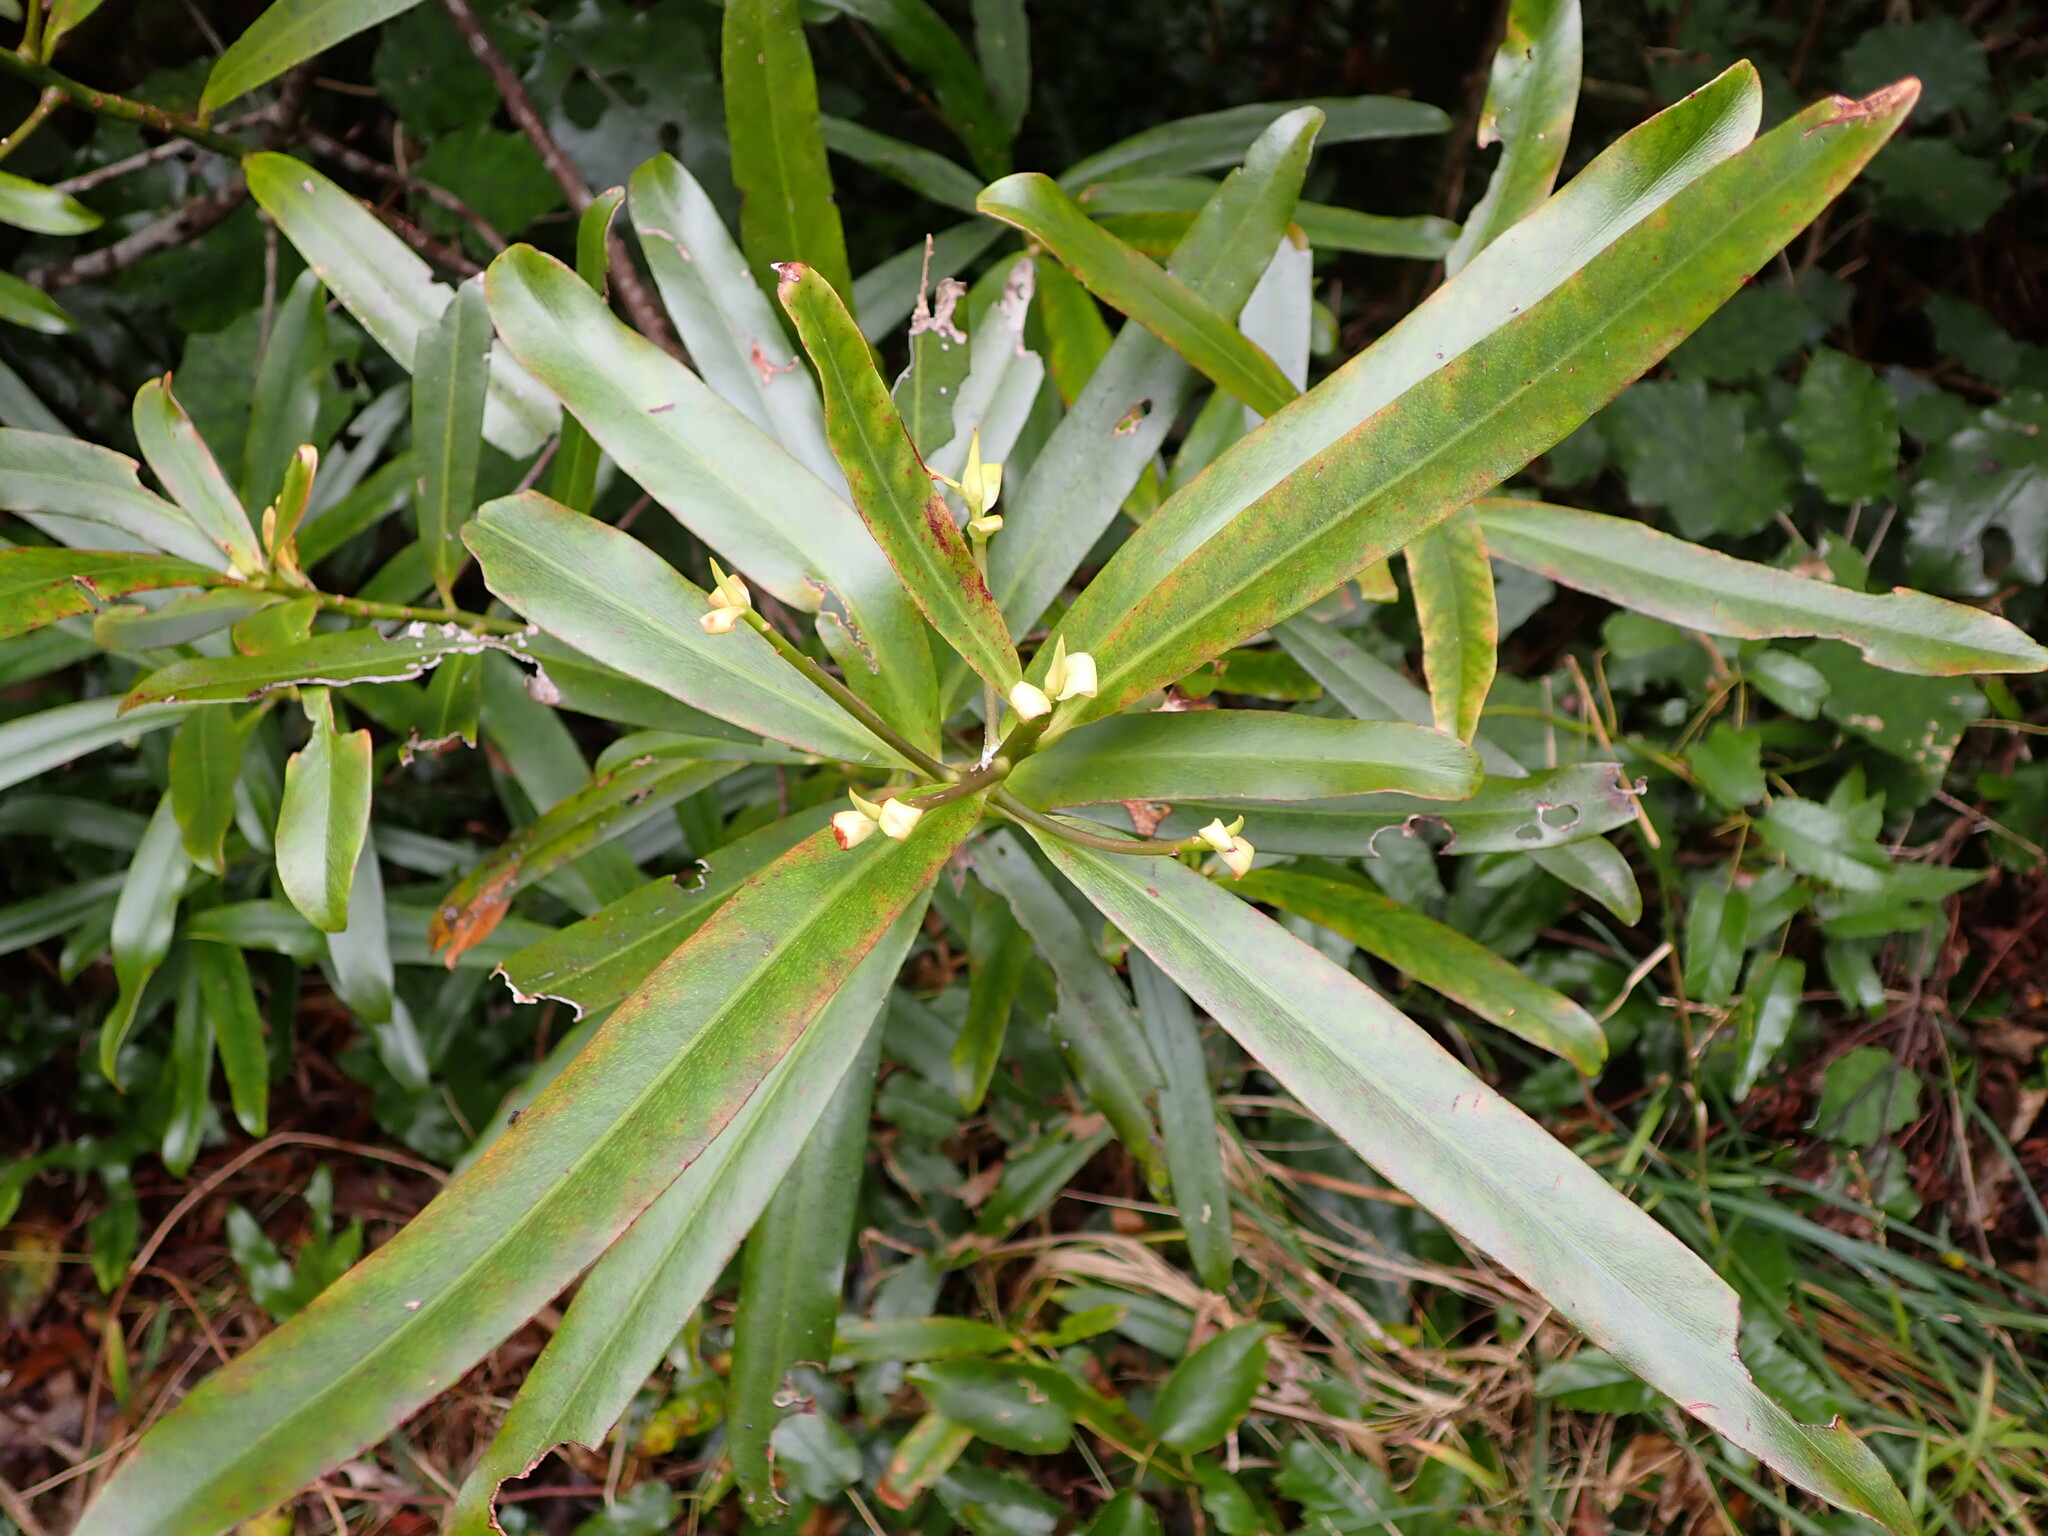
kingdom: Plantae
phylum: Tracheophyta
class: Magnoliopsida
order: Ericales
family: Primulaceae
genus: Myrsine
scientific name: Myrsine salicina
